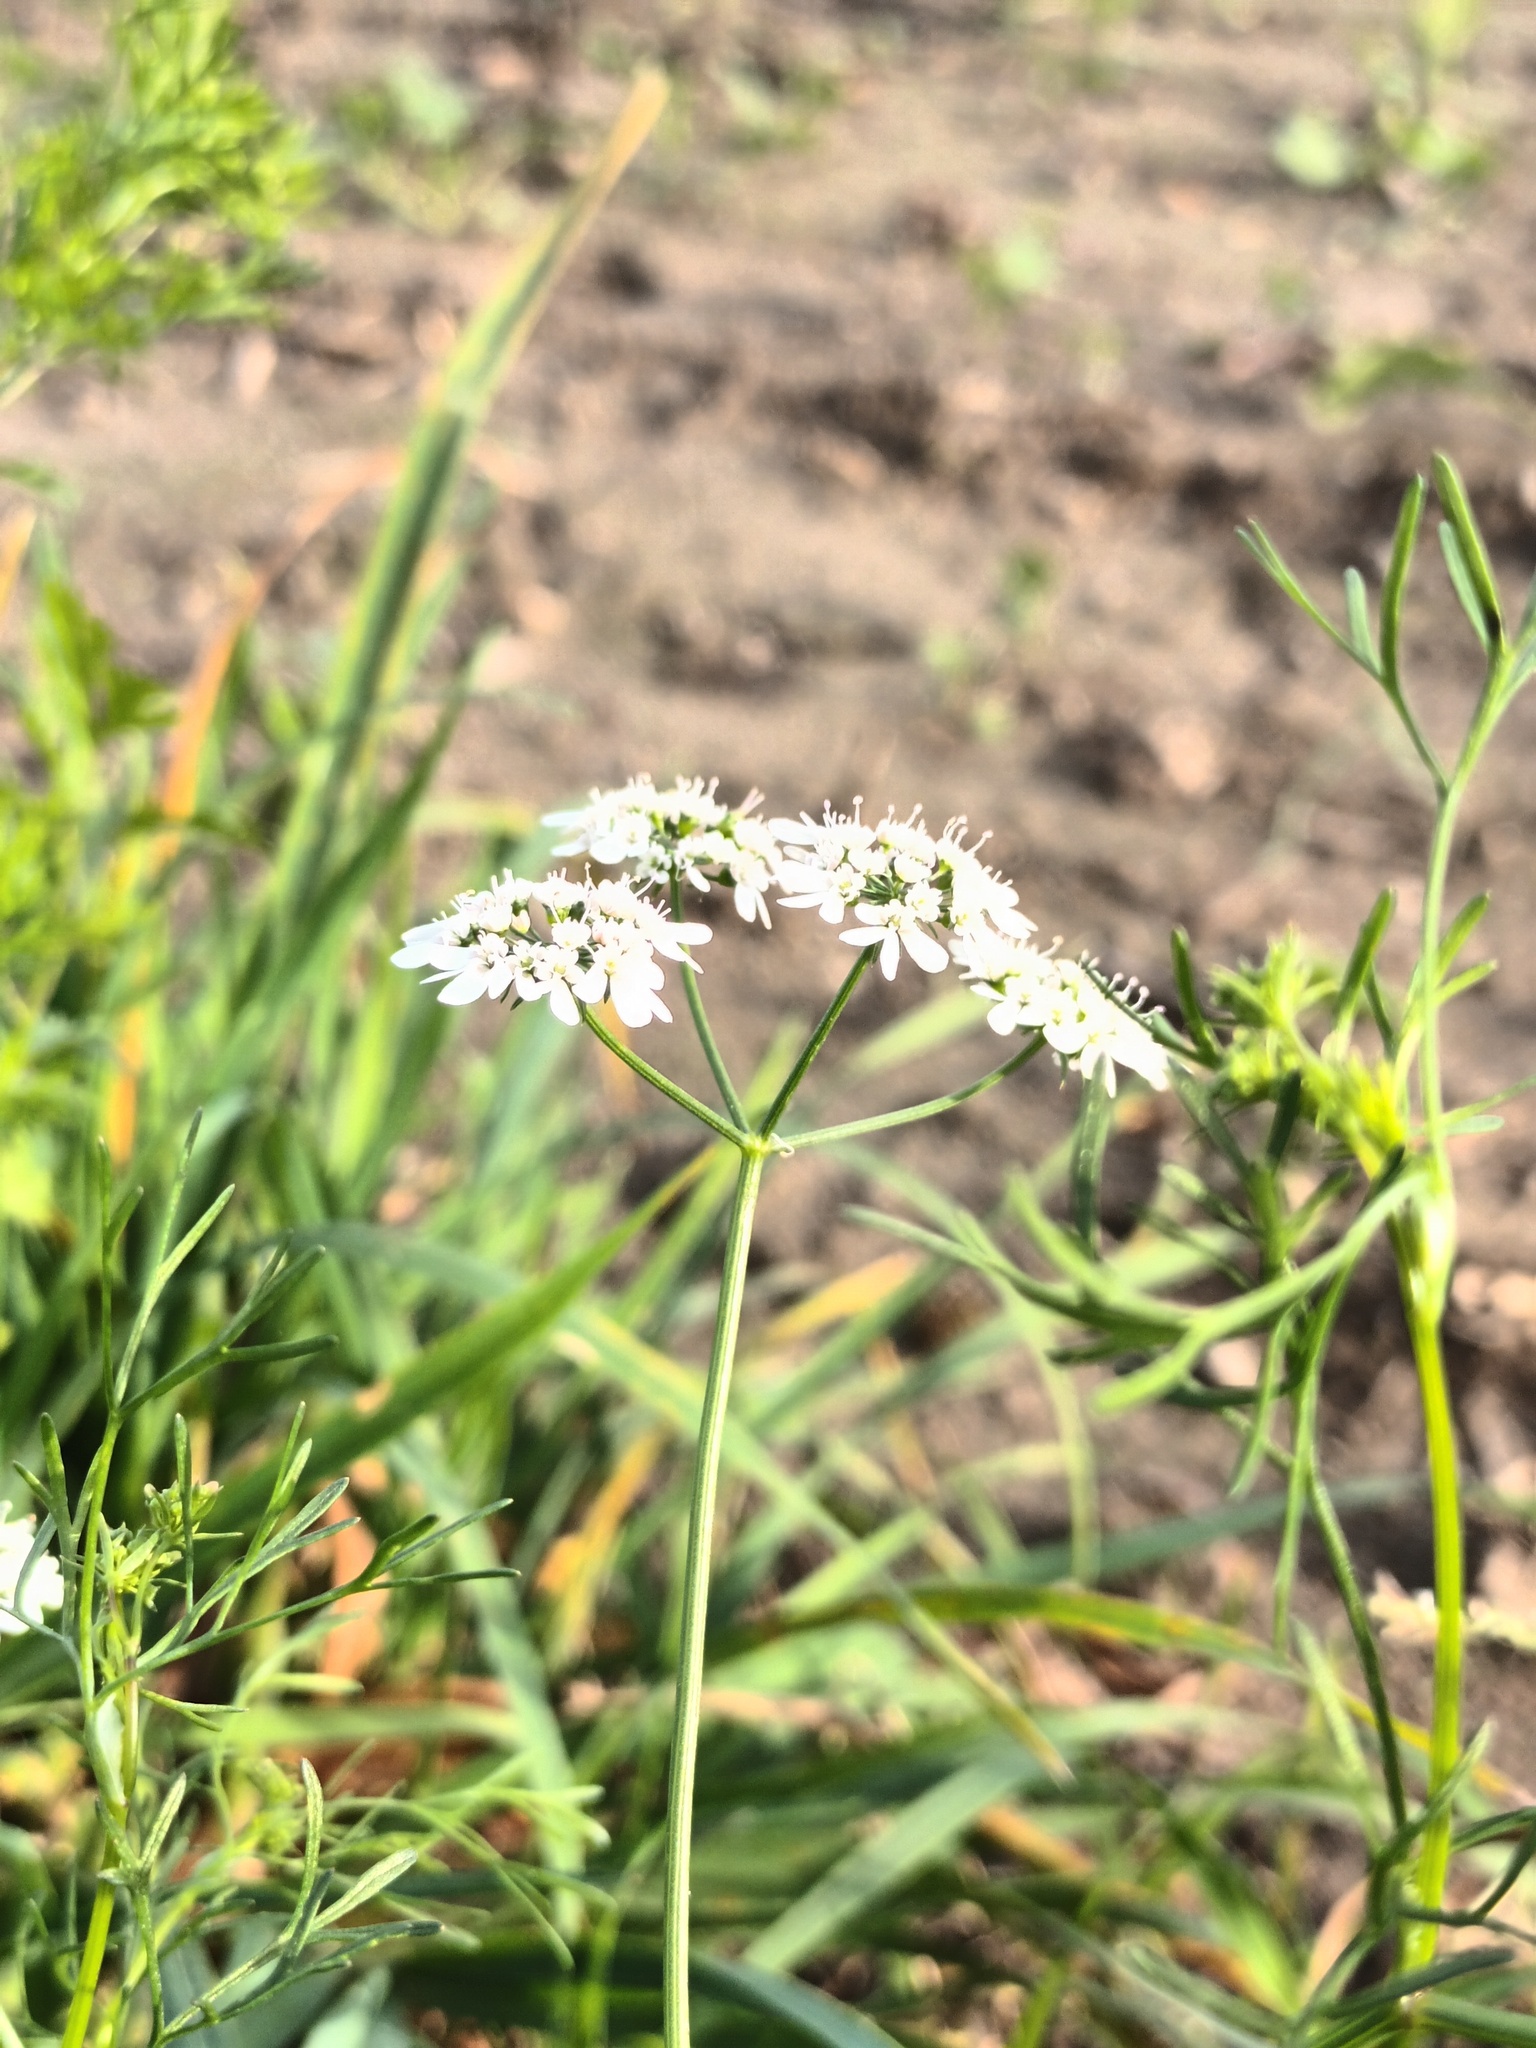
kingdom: Plantae
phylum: Tracheophyta
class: Magnoliopsida
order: Apiales
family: Apiaceae
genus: Coriandrum
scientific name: Coriandrum sativum
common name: Coriander
